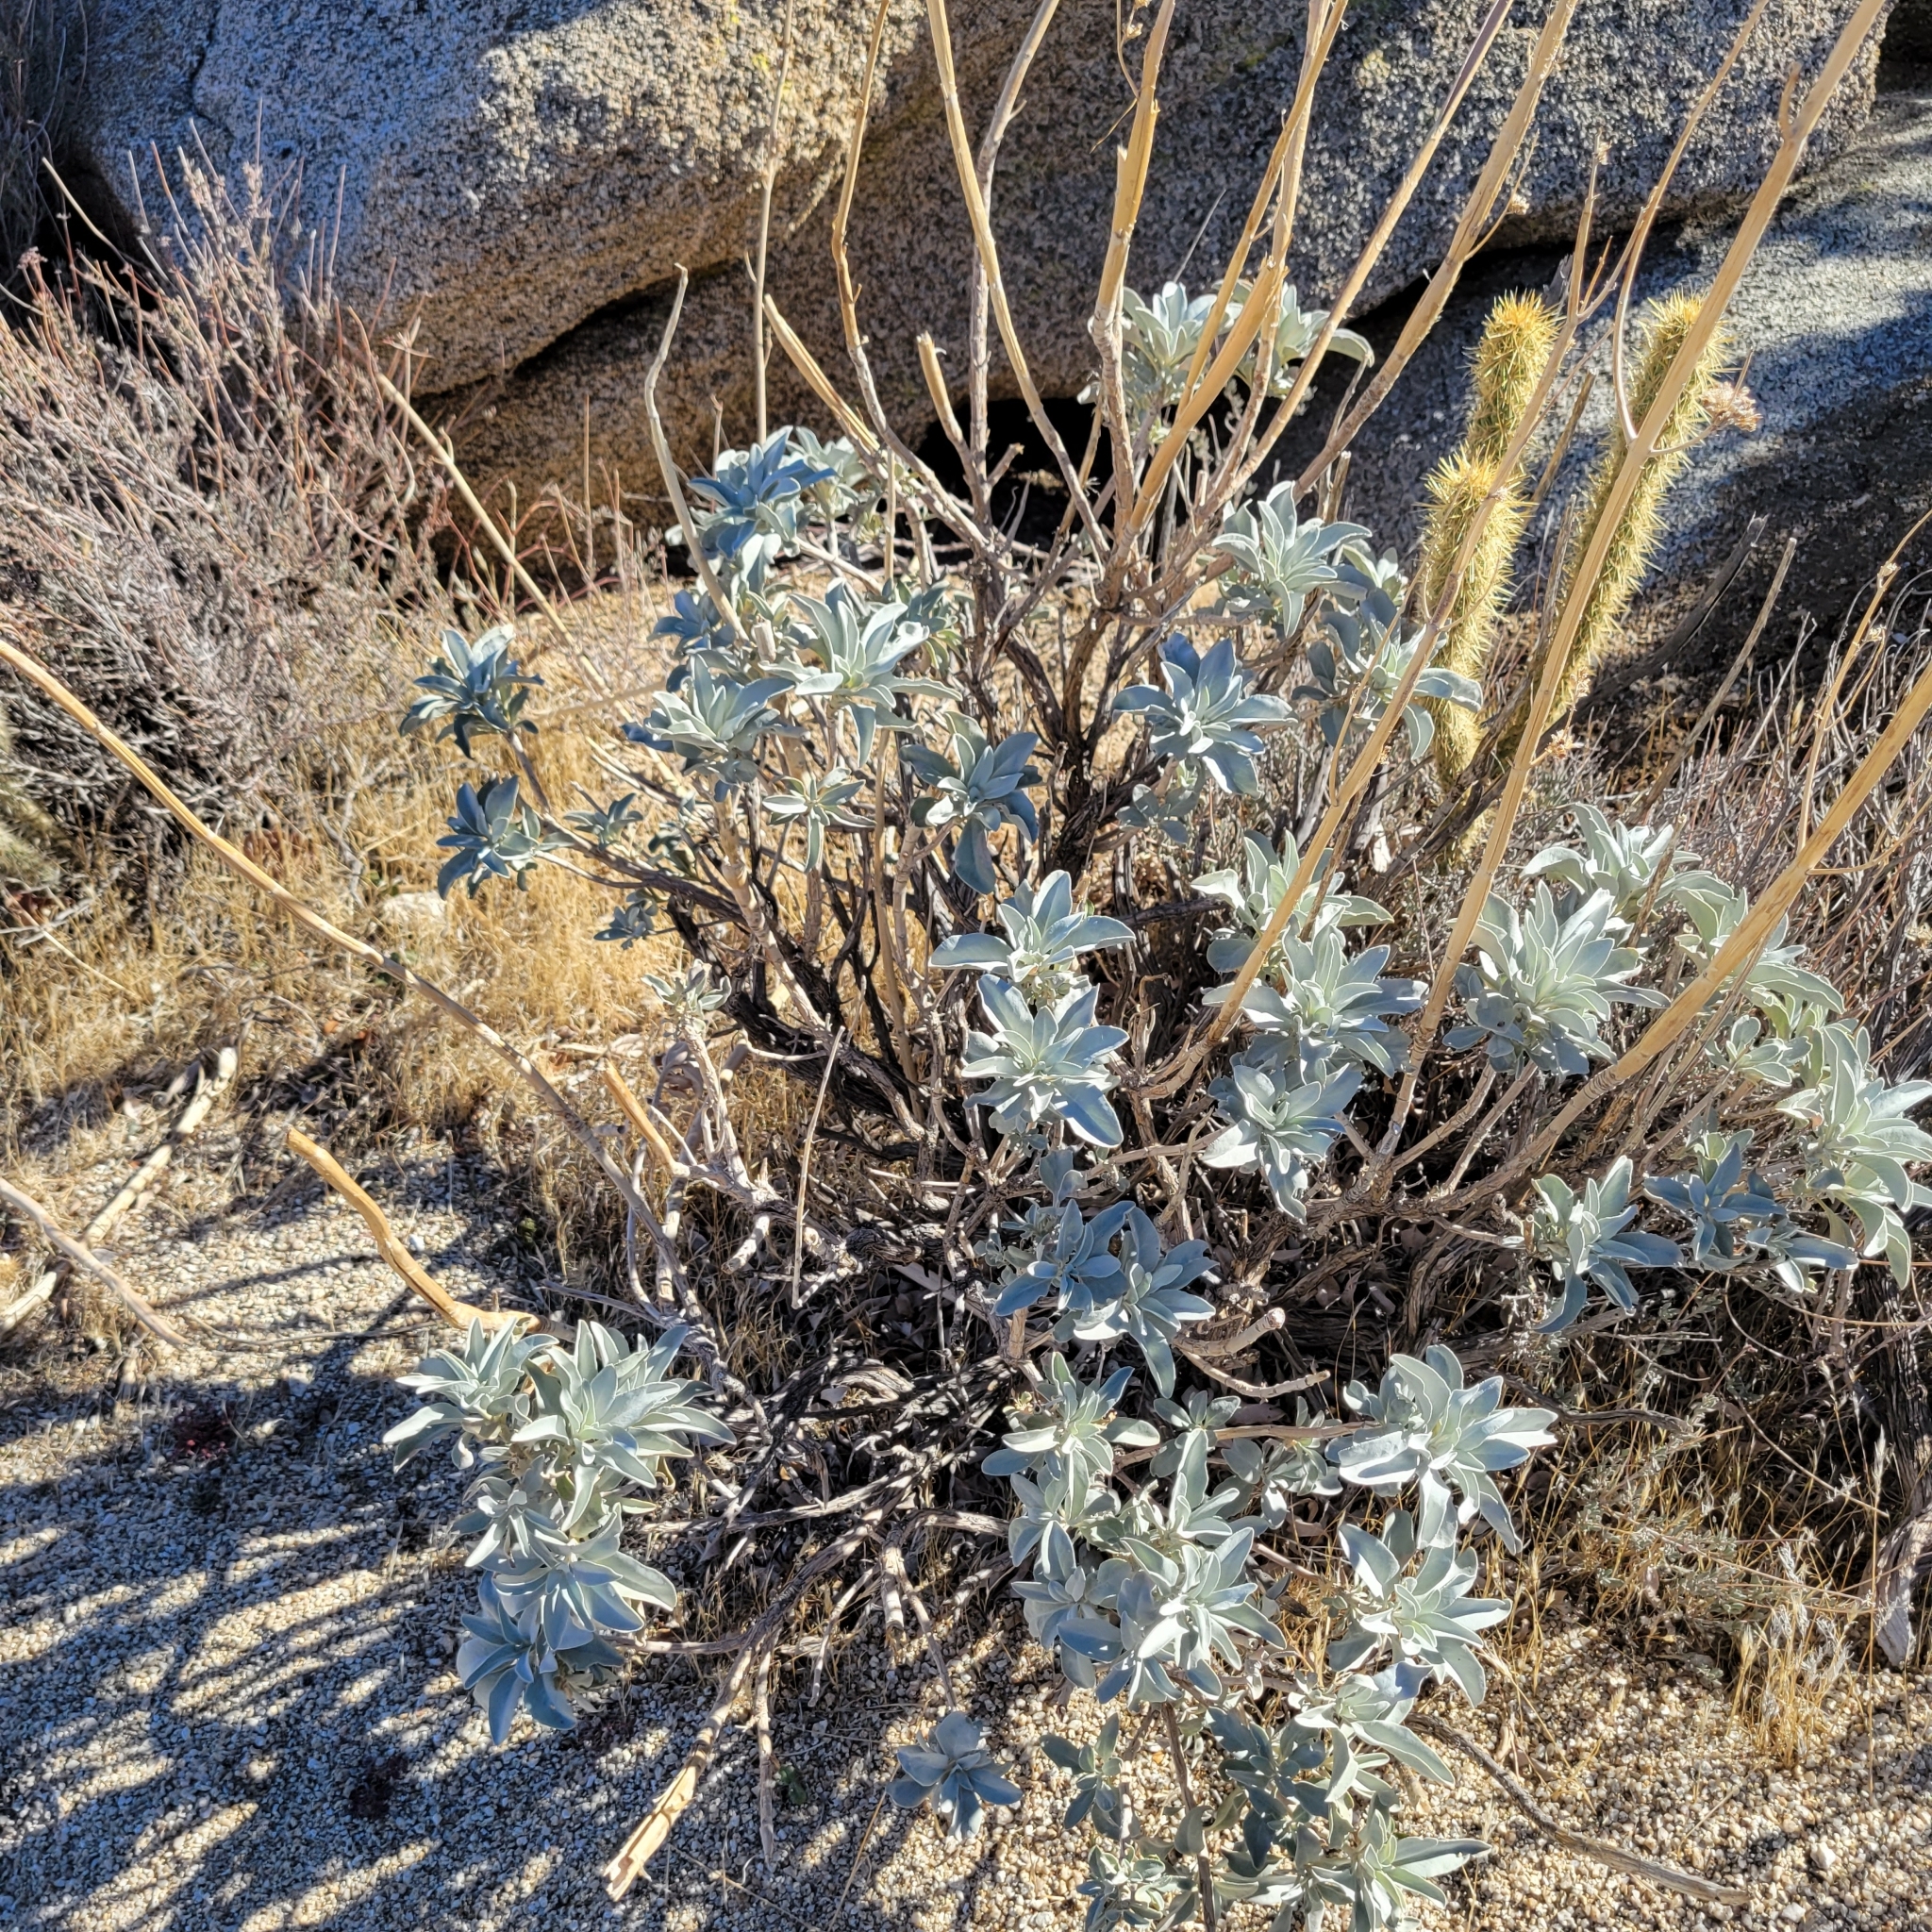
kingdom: Plantae
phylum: Tracheophyta
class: Magnoliopsida
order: Lamiales
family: Lamiaceae
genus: Salvia
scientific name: Salvia apiana
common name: White sage
